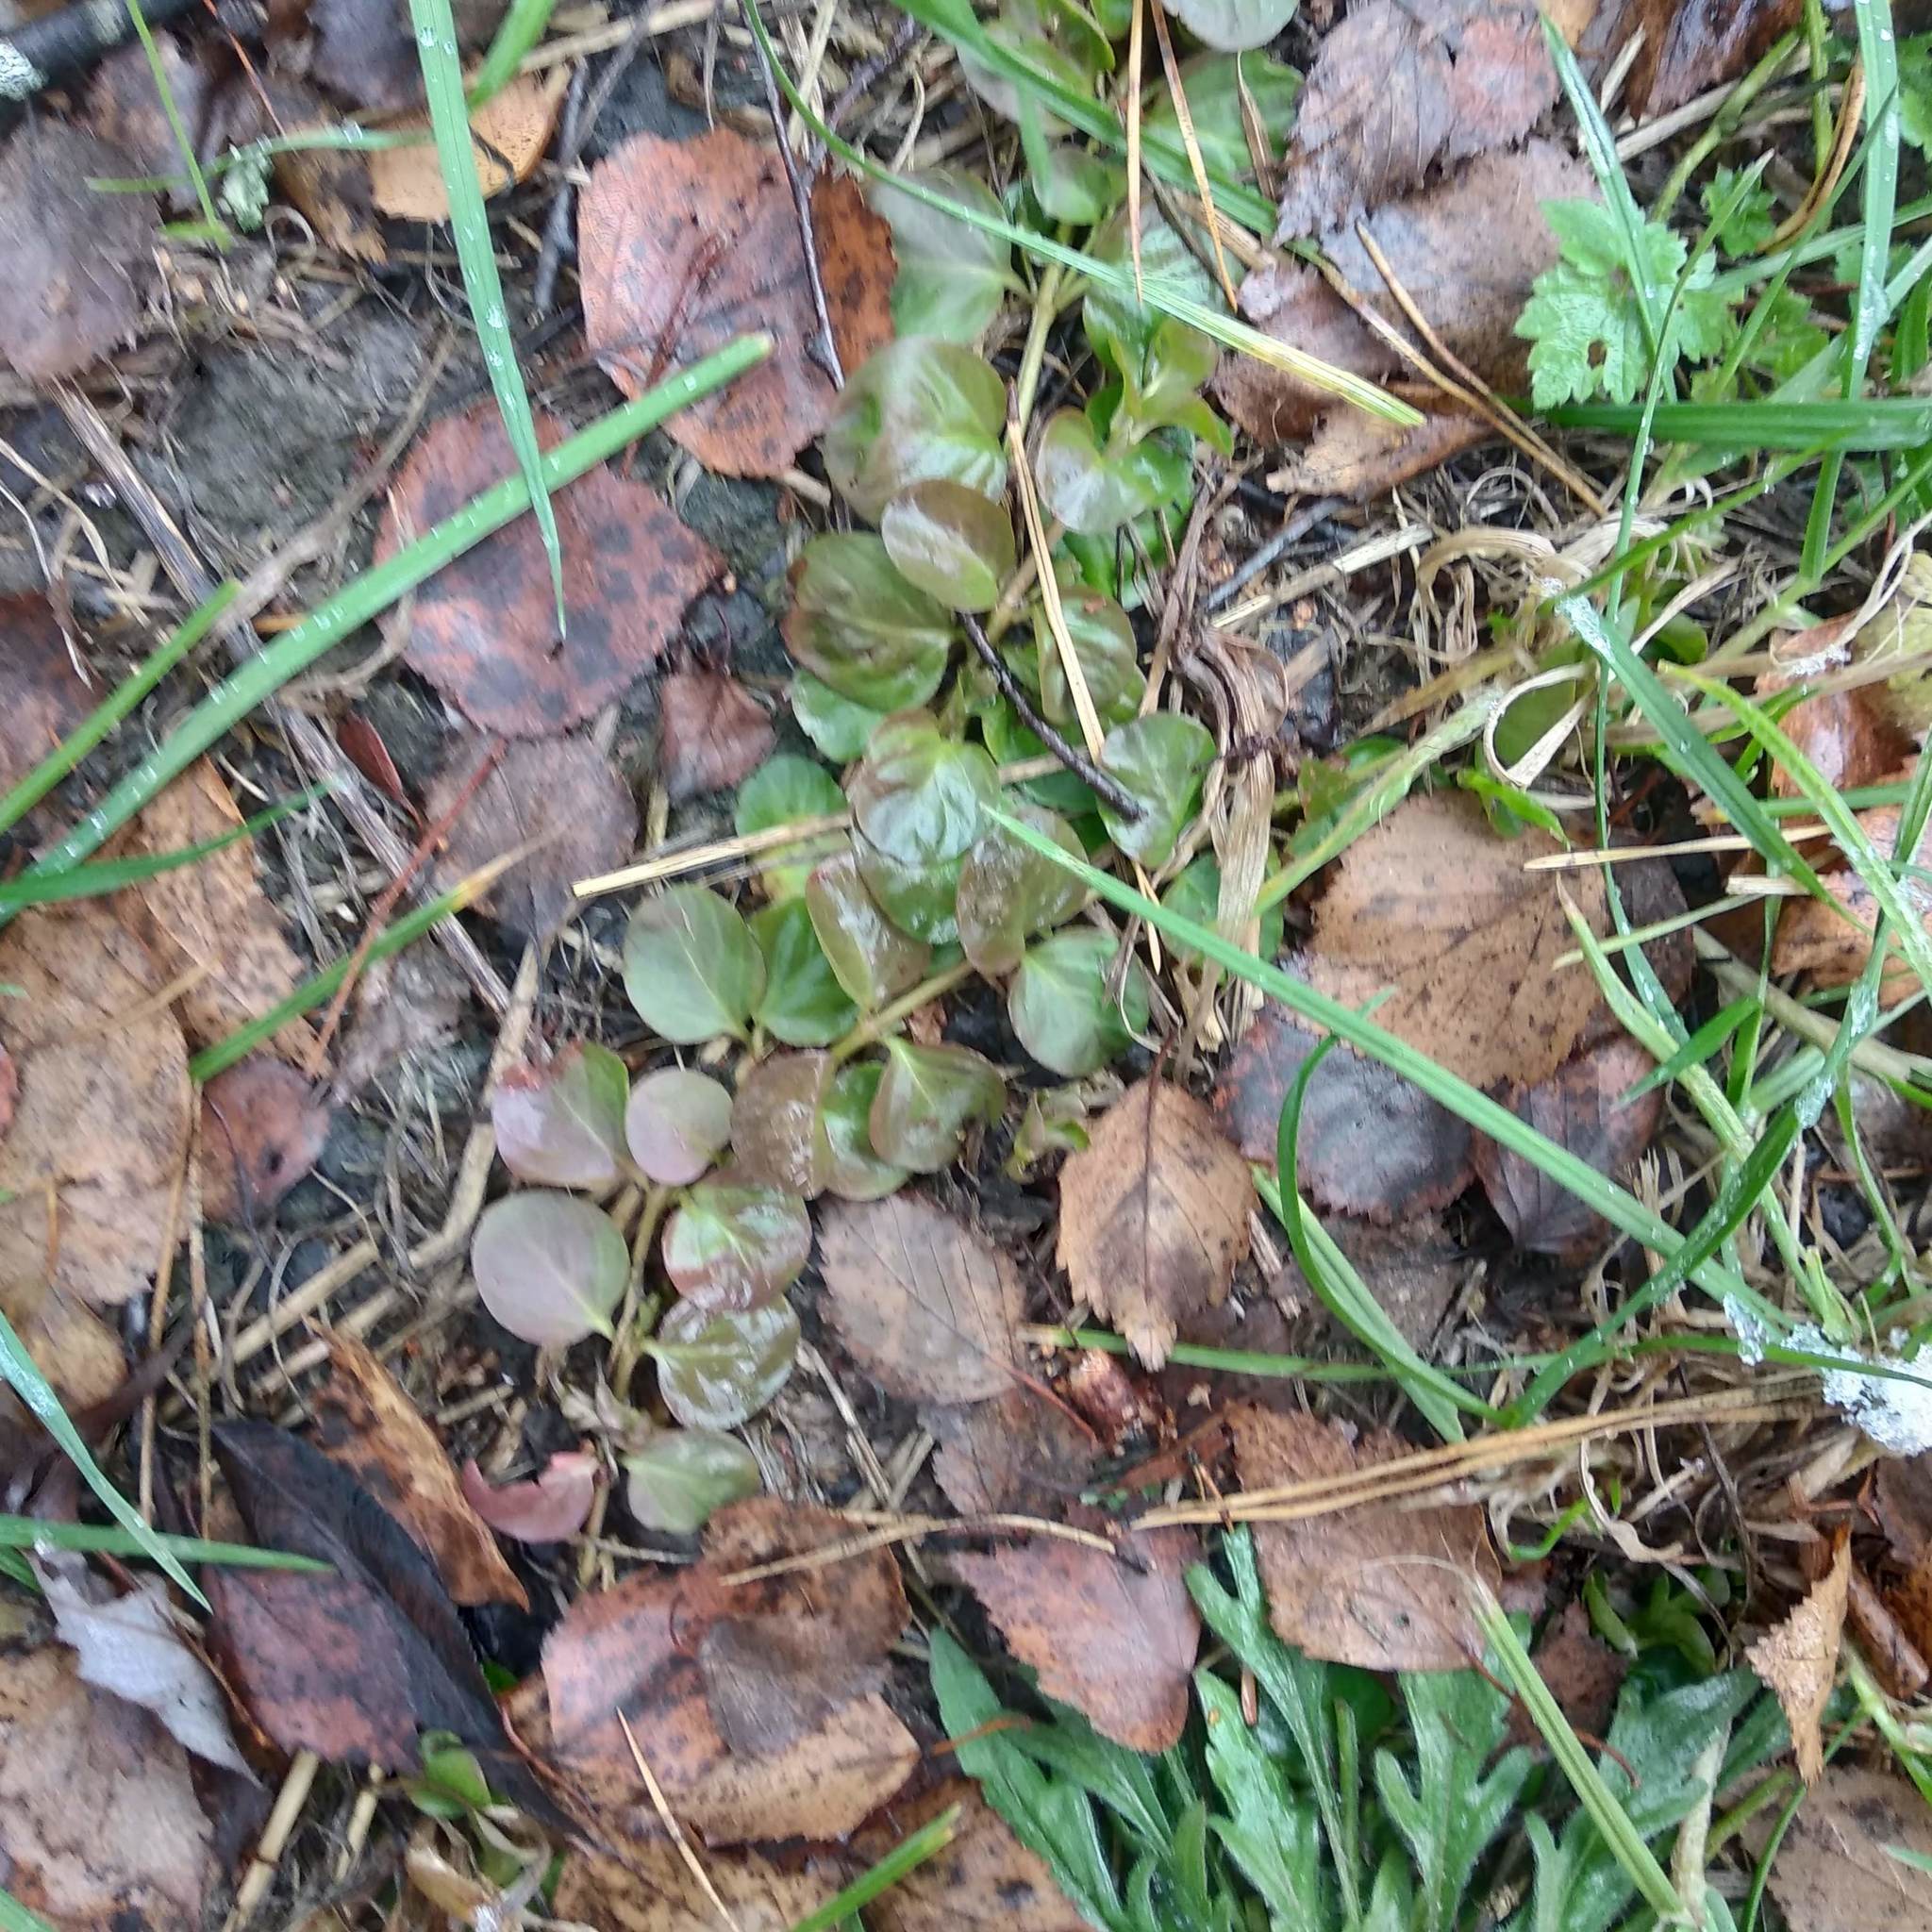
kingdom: Plantae
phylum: Tracheophyta
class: Magnoliopsida
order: Ericales
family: Primulaceae
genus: Lysimachia
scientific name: Lysimachia nummularia
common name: Moneywort
